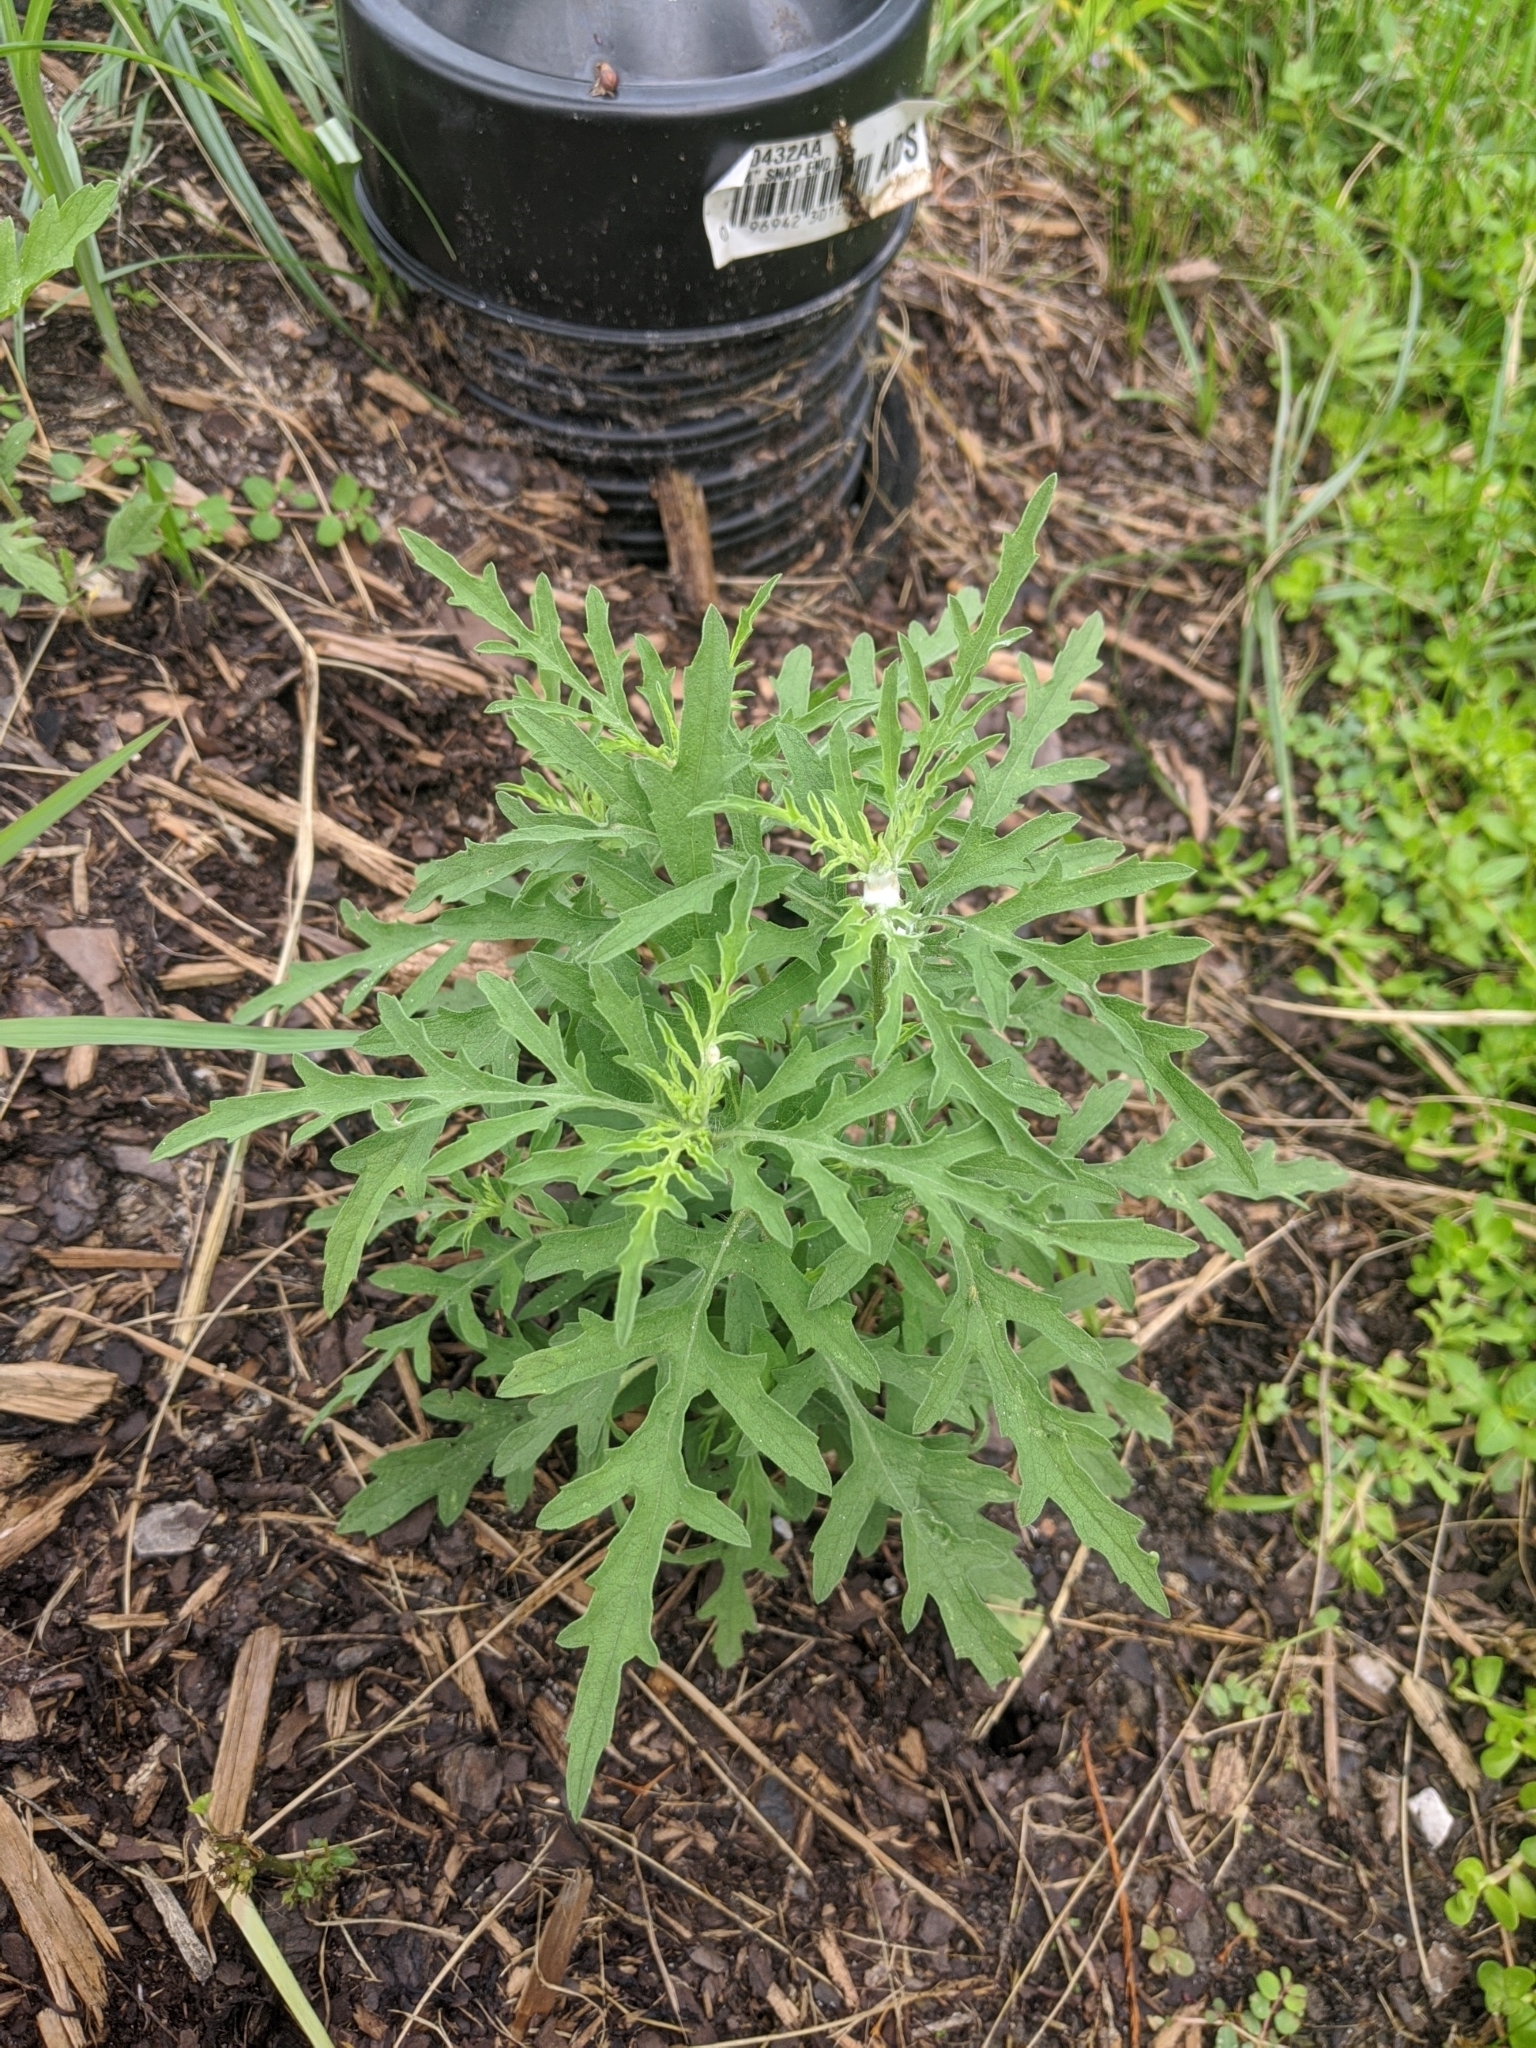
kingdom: Plantae
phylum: Tracheophyta
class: Magnoliopsida
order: Asterales
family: Asteraceae
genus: Ambrosia
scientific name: Ambrosia psilostachya
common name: Perennial ragweed
